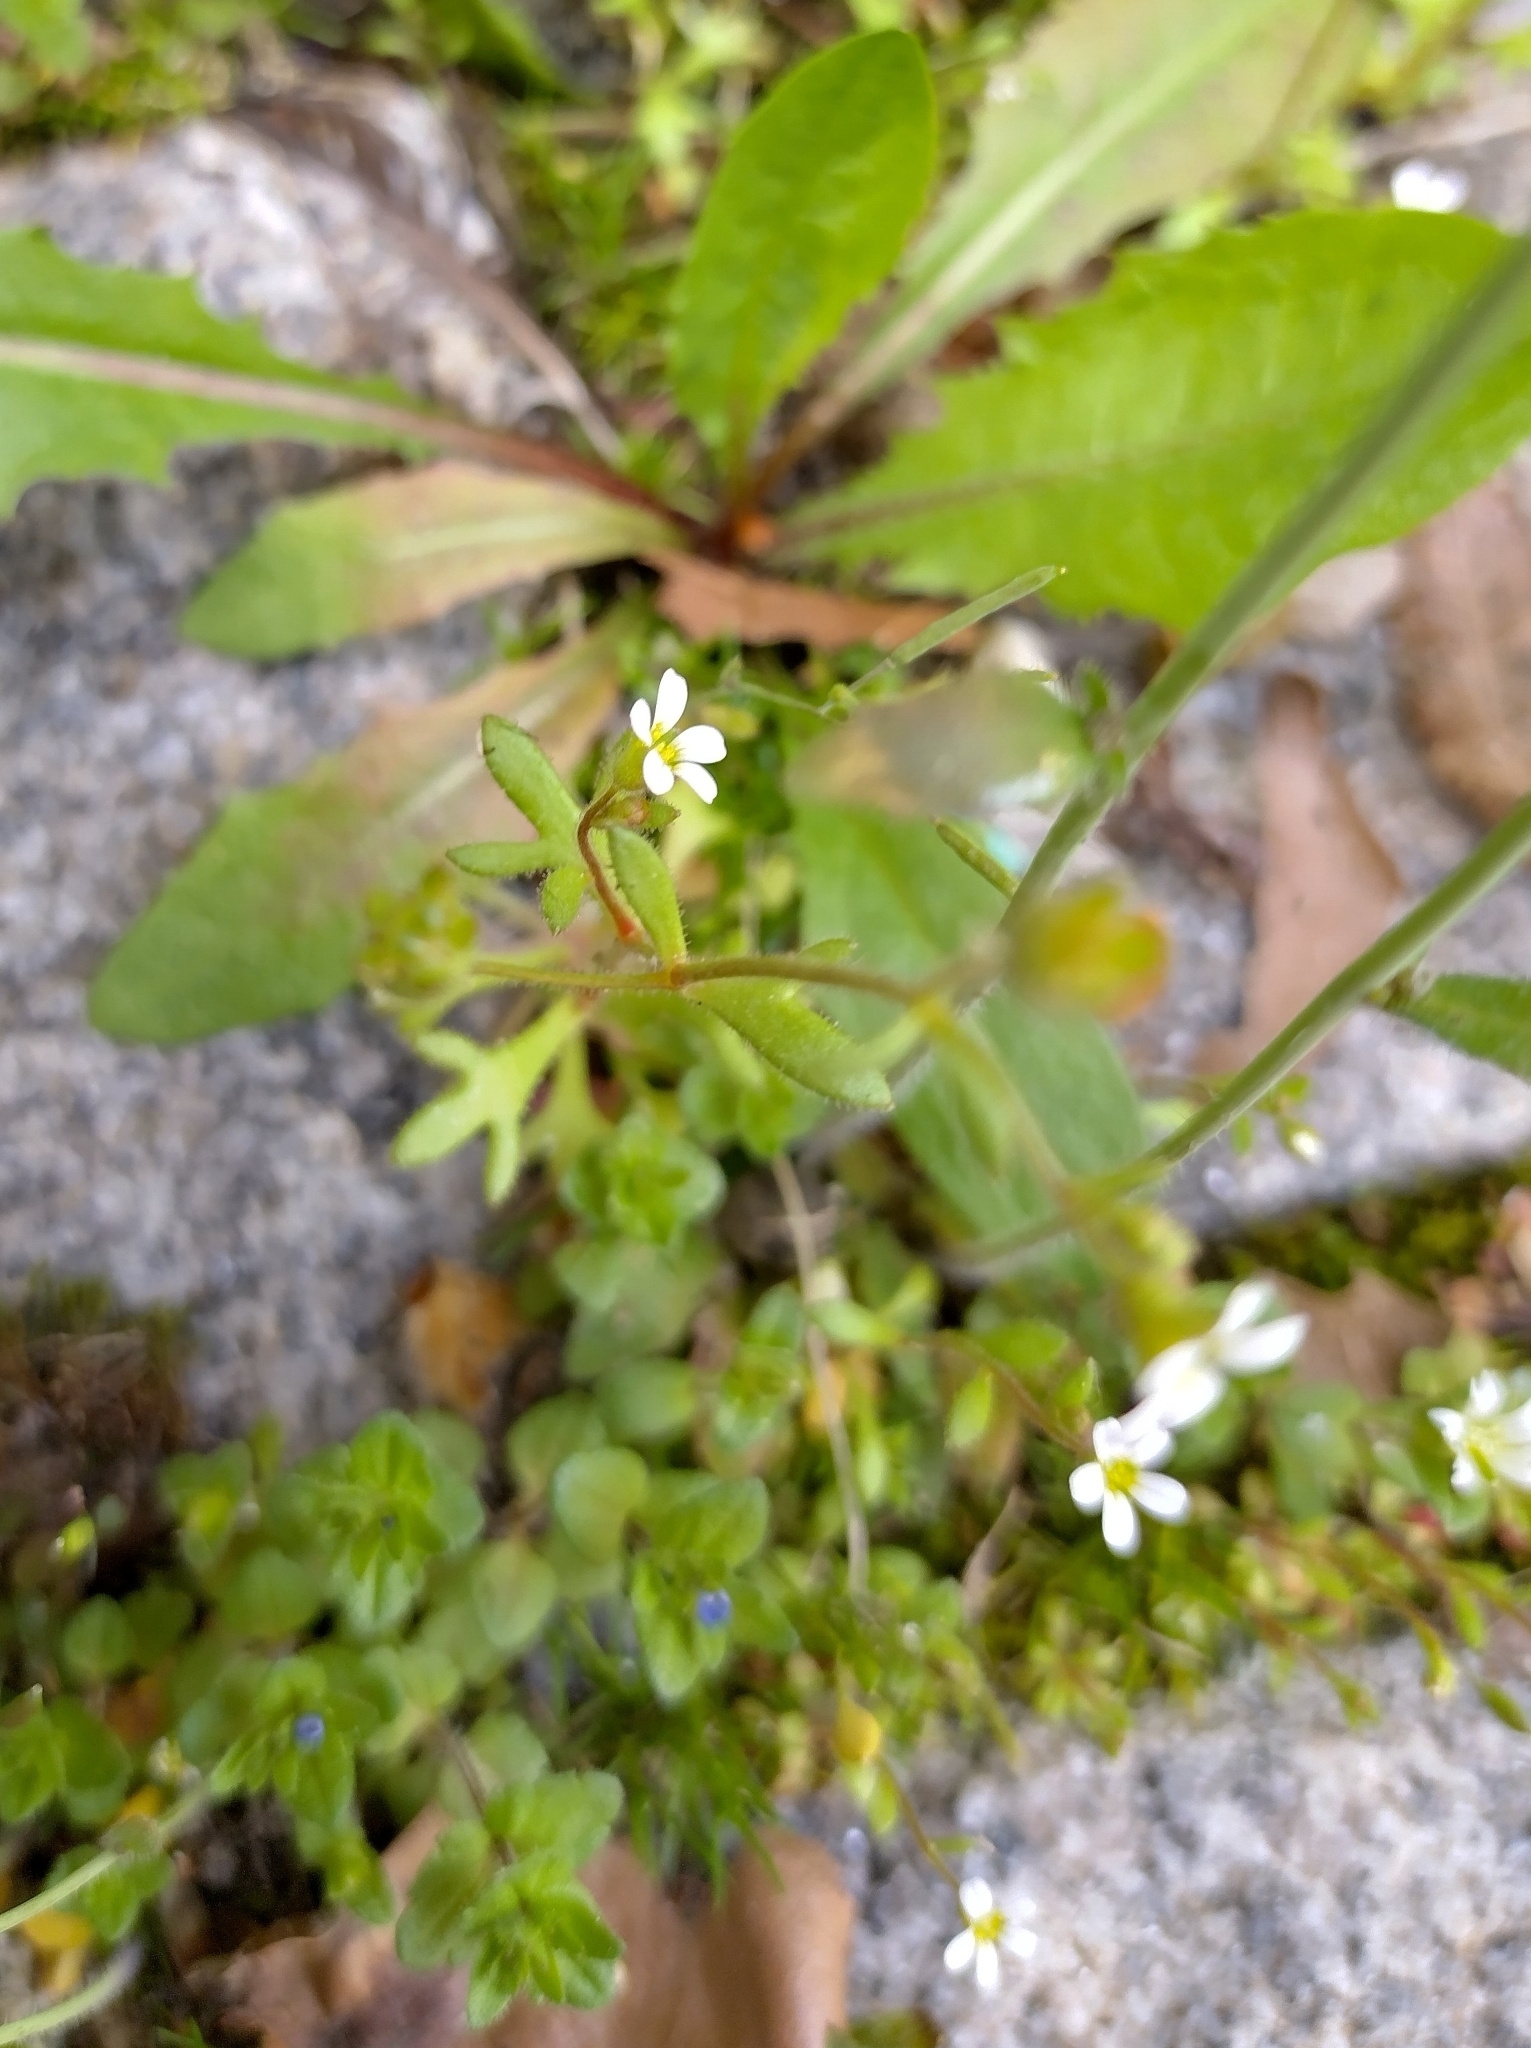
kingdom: Plantae
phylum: Tracheophyta
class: Magnoliopsida
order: Saxifragales
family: Saxifragaceae
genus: Saxifraga
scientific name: Saxifraga tridactylites
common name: Rue-leaved saxifrage
